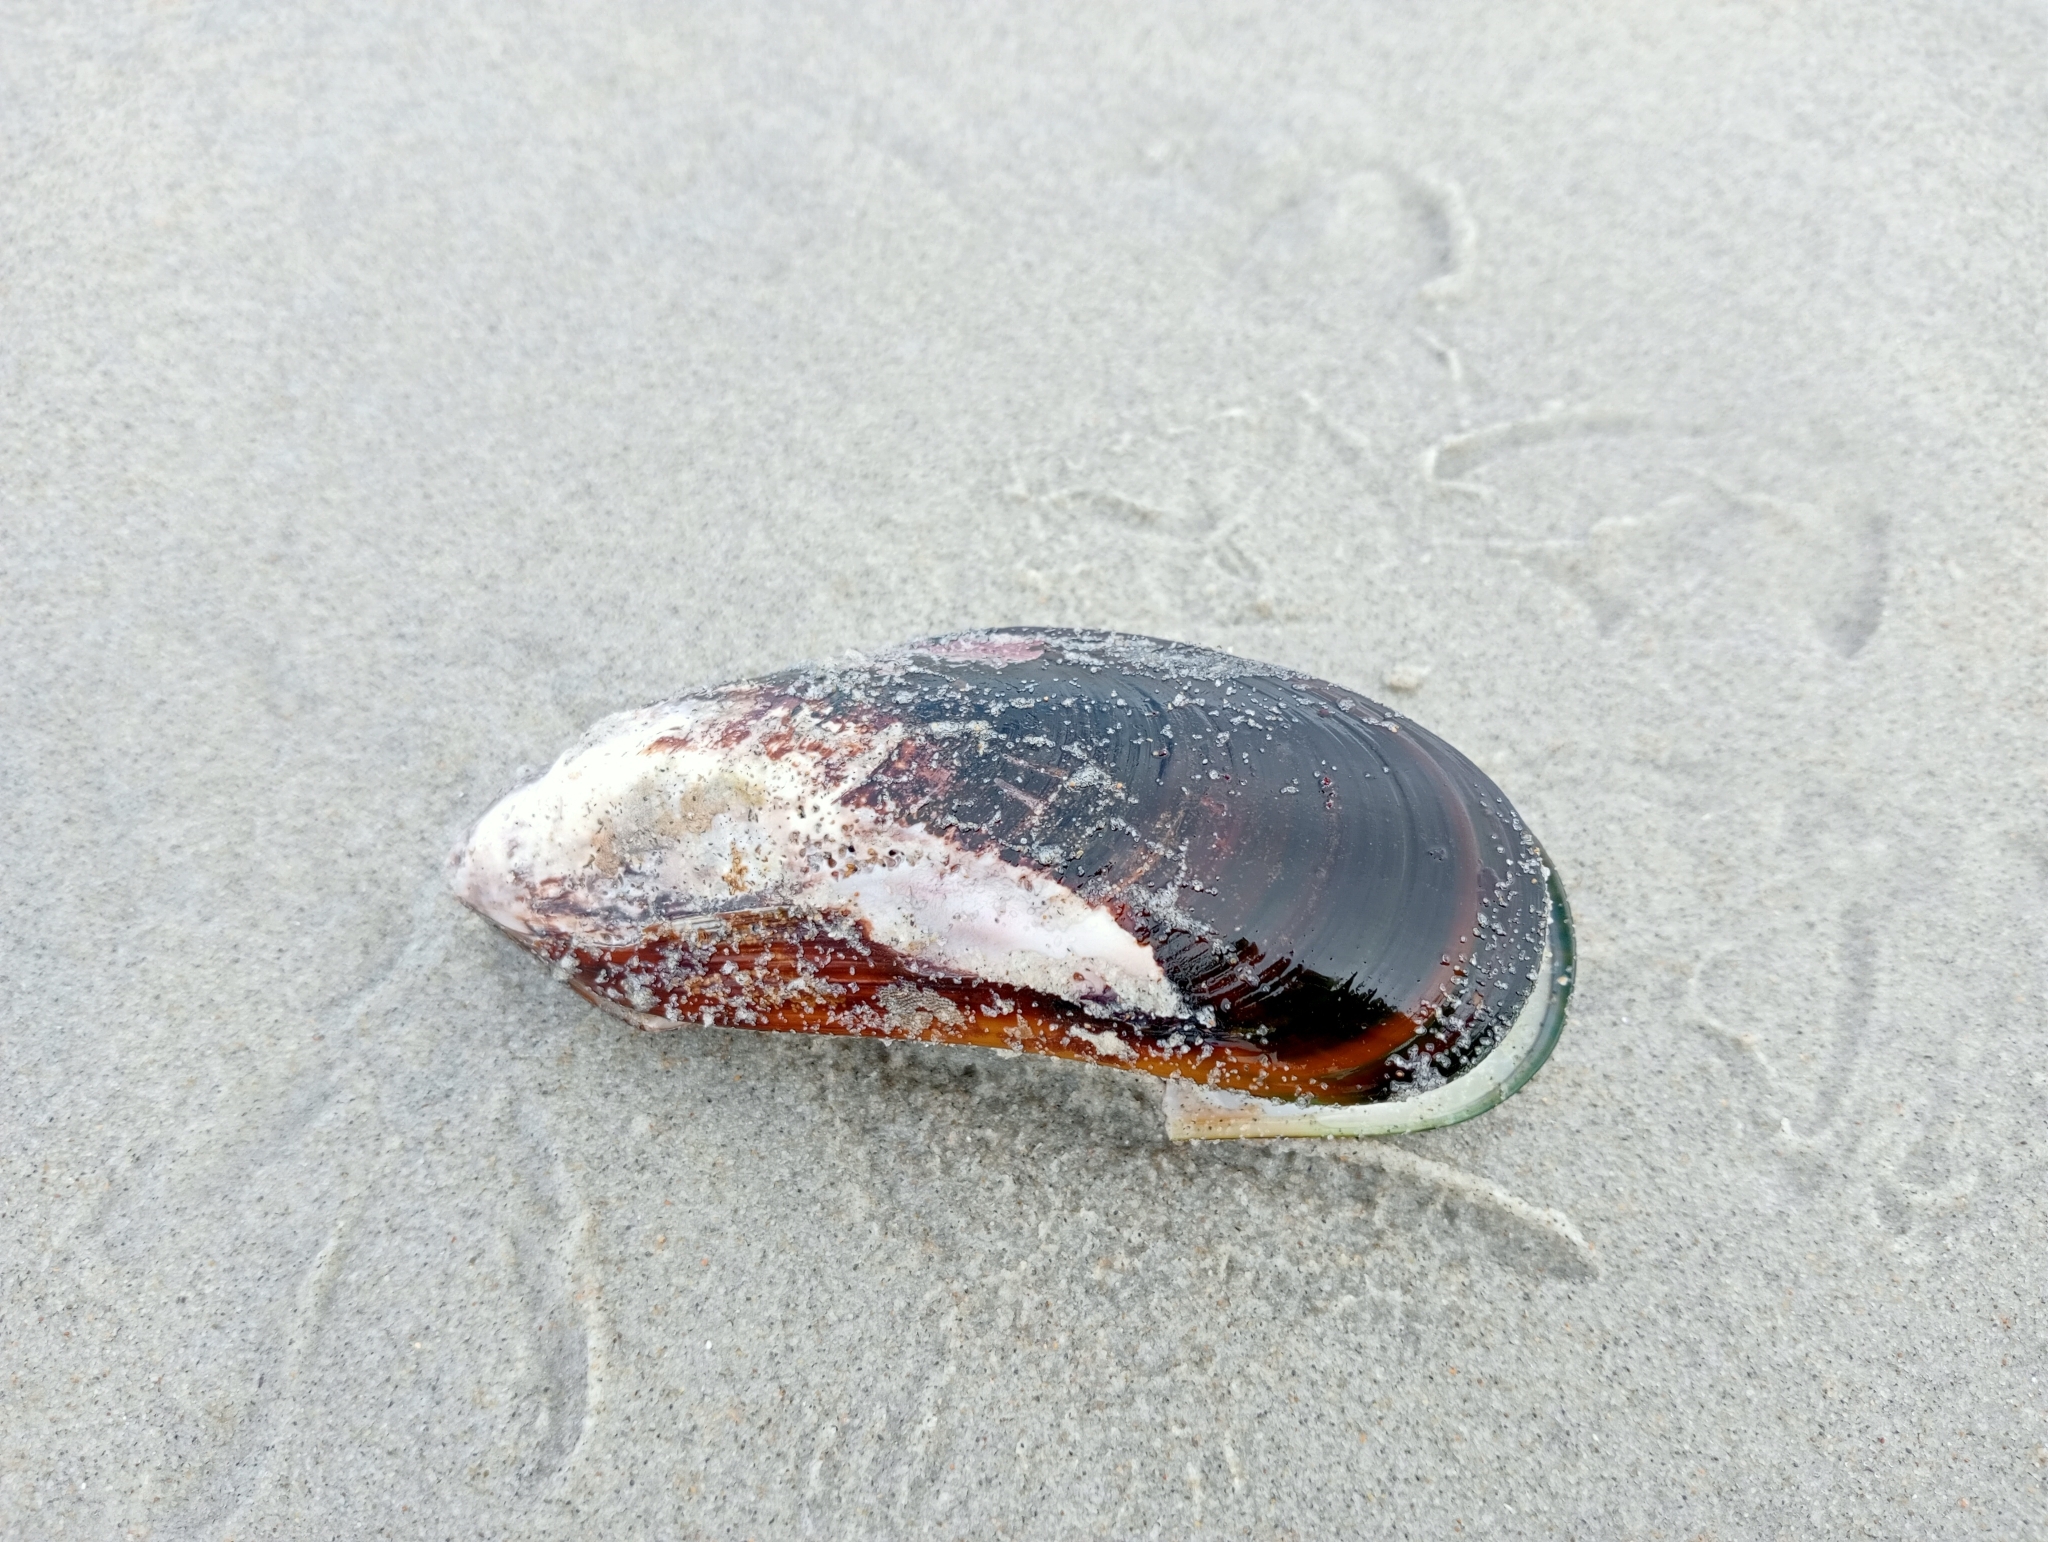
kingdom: Animalia
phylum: Mollusca
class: Bivalvia
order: Mytilida
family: Mytilidae
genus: Perna
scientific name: Perna canaliculus
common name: New zealand greenshelltm
